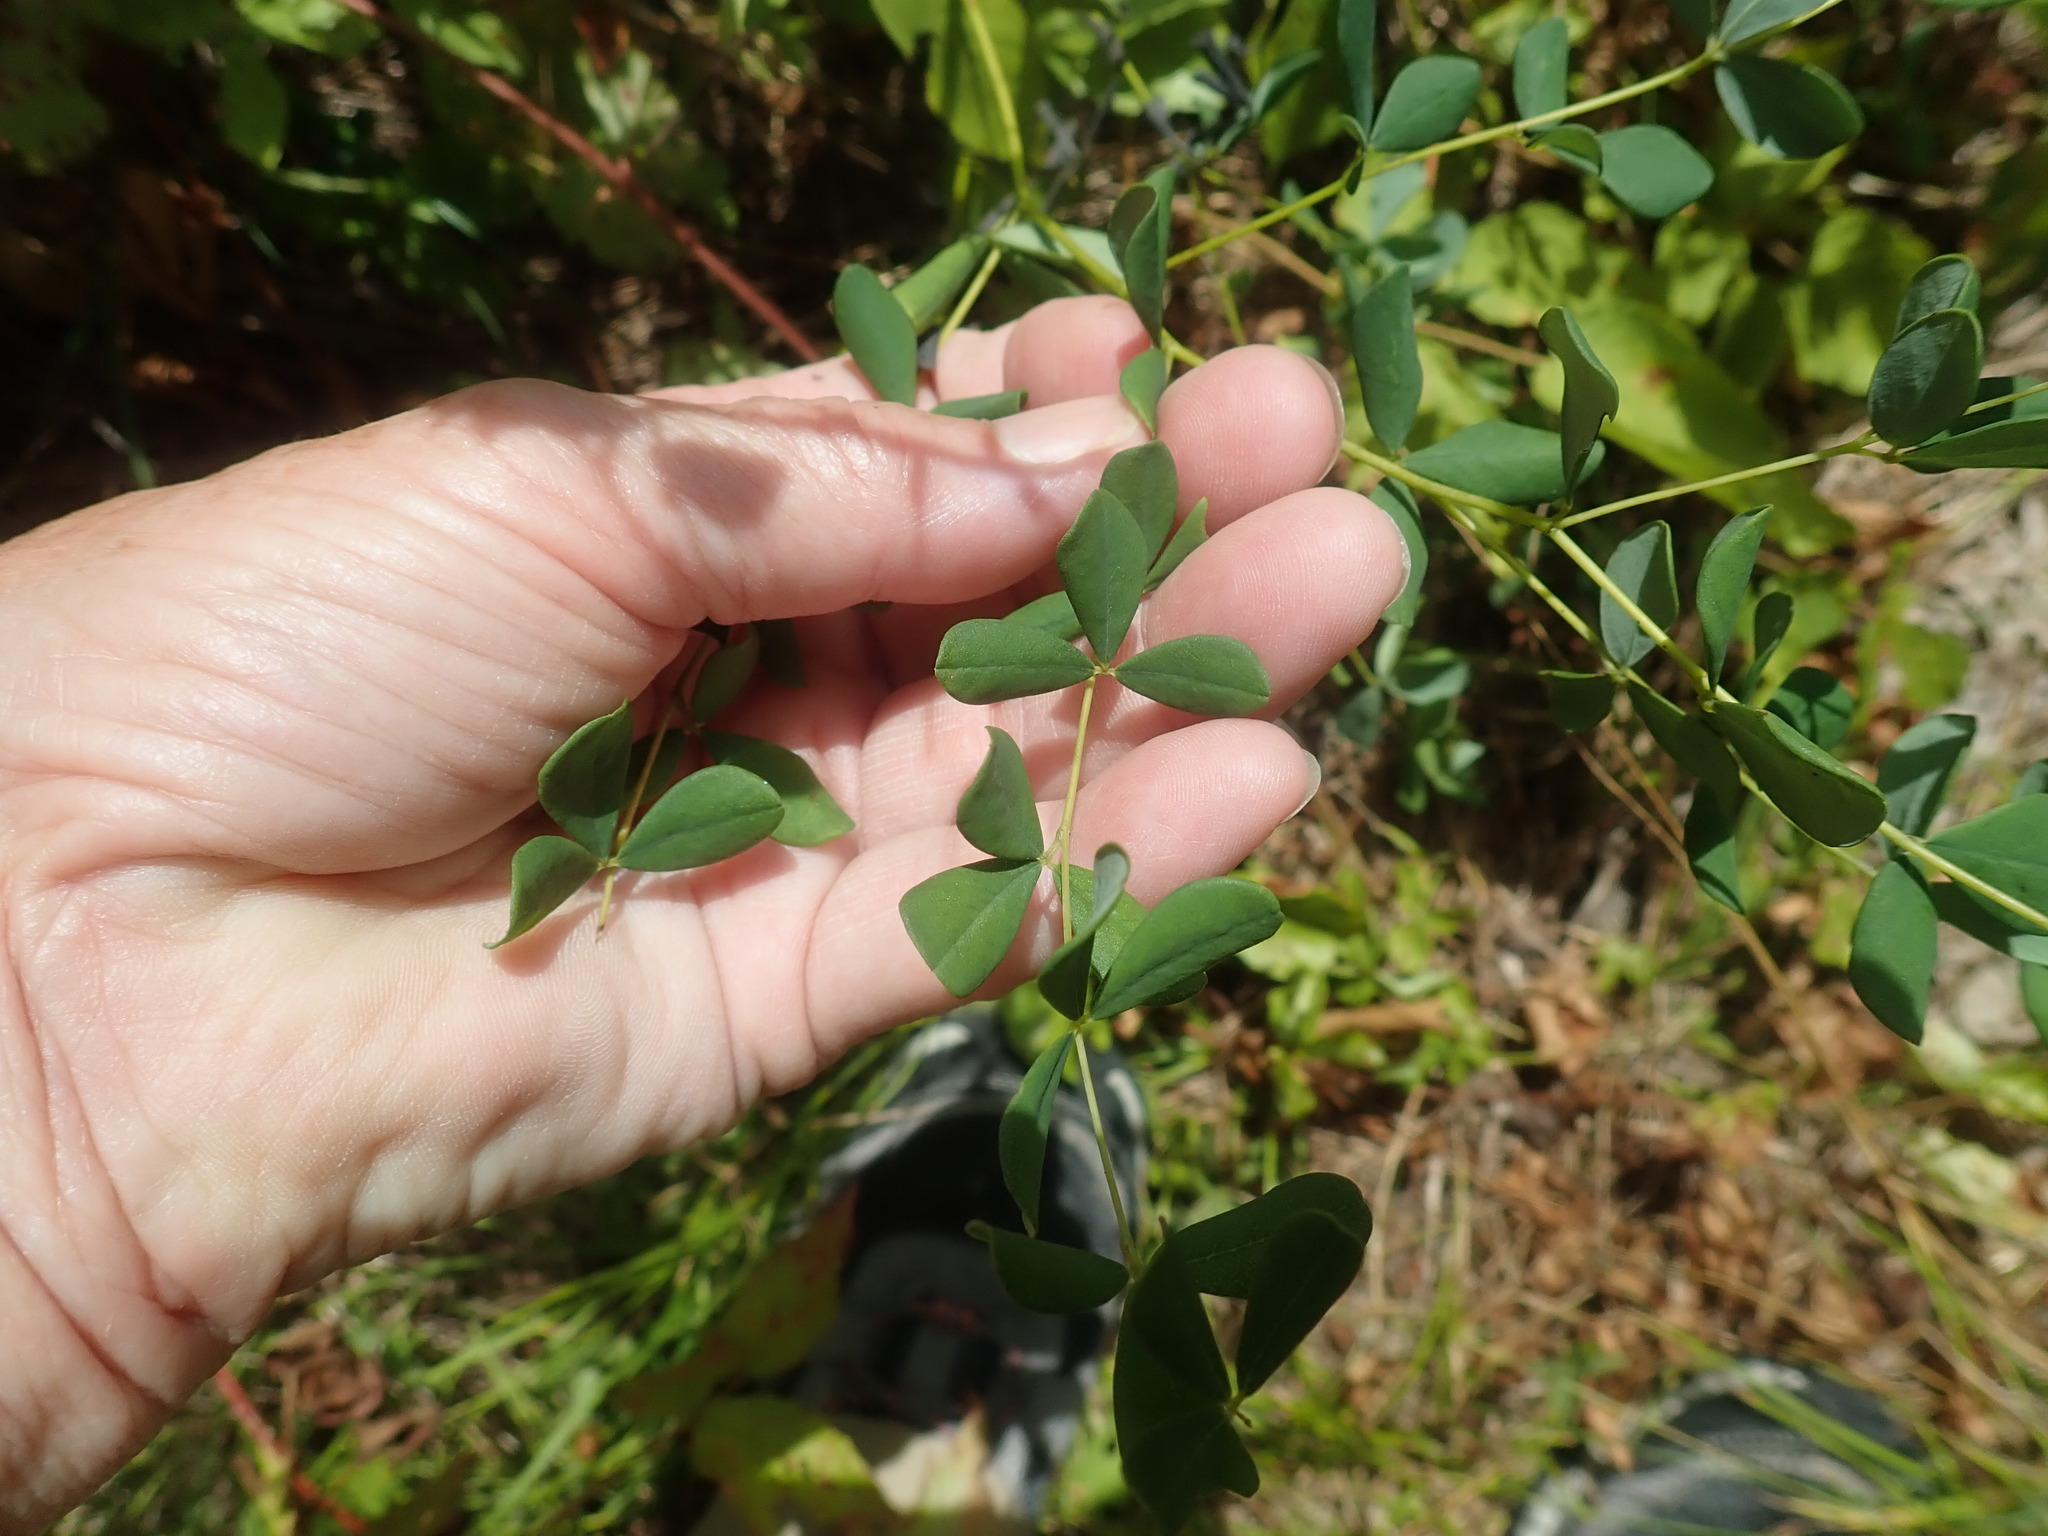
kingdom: Plantae
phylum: Tracheophyta
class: Magnoliopsida
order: Fabales
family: Fabaceae
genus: Baptisia
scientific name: Baptisia tinctoria
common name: Wild indigo
